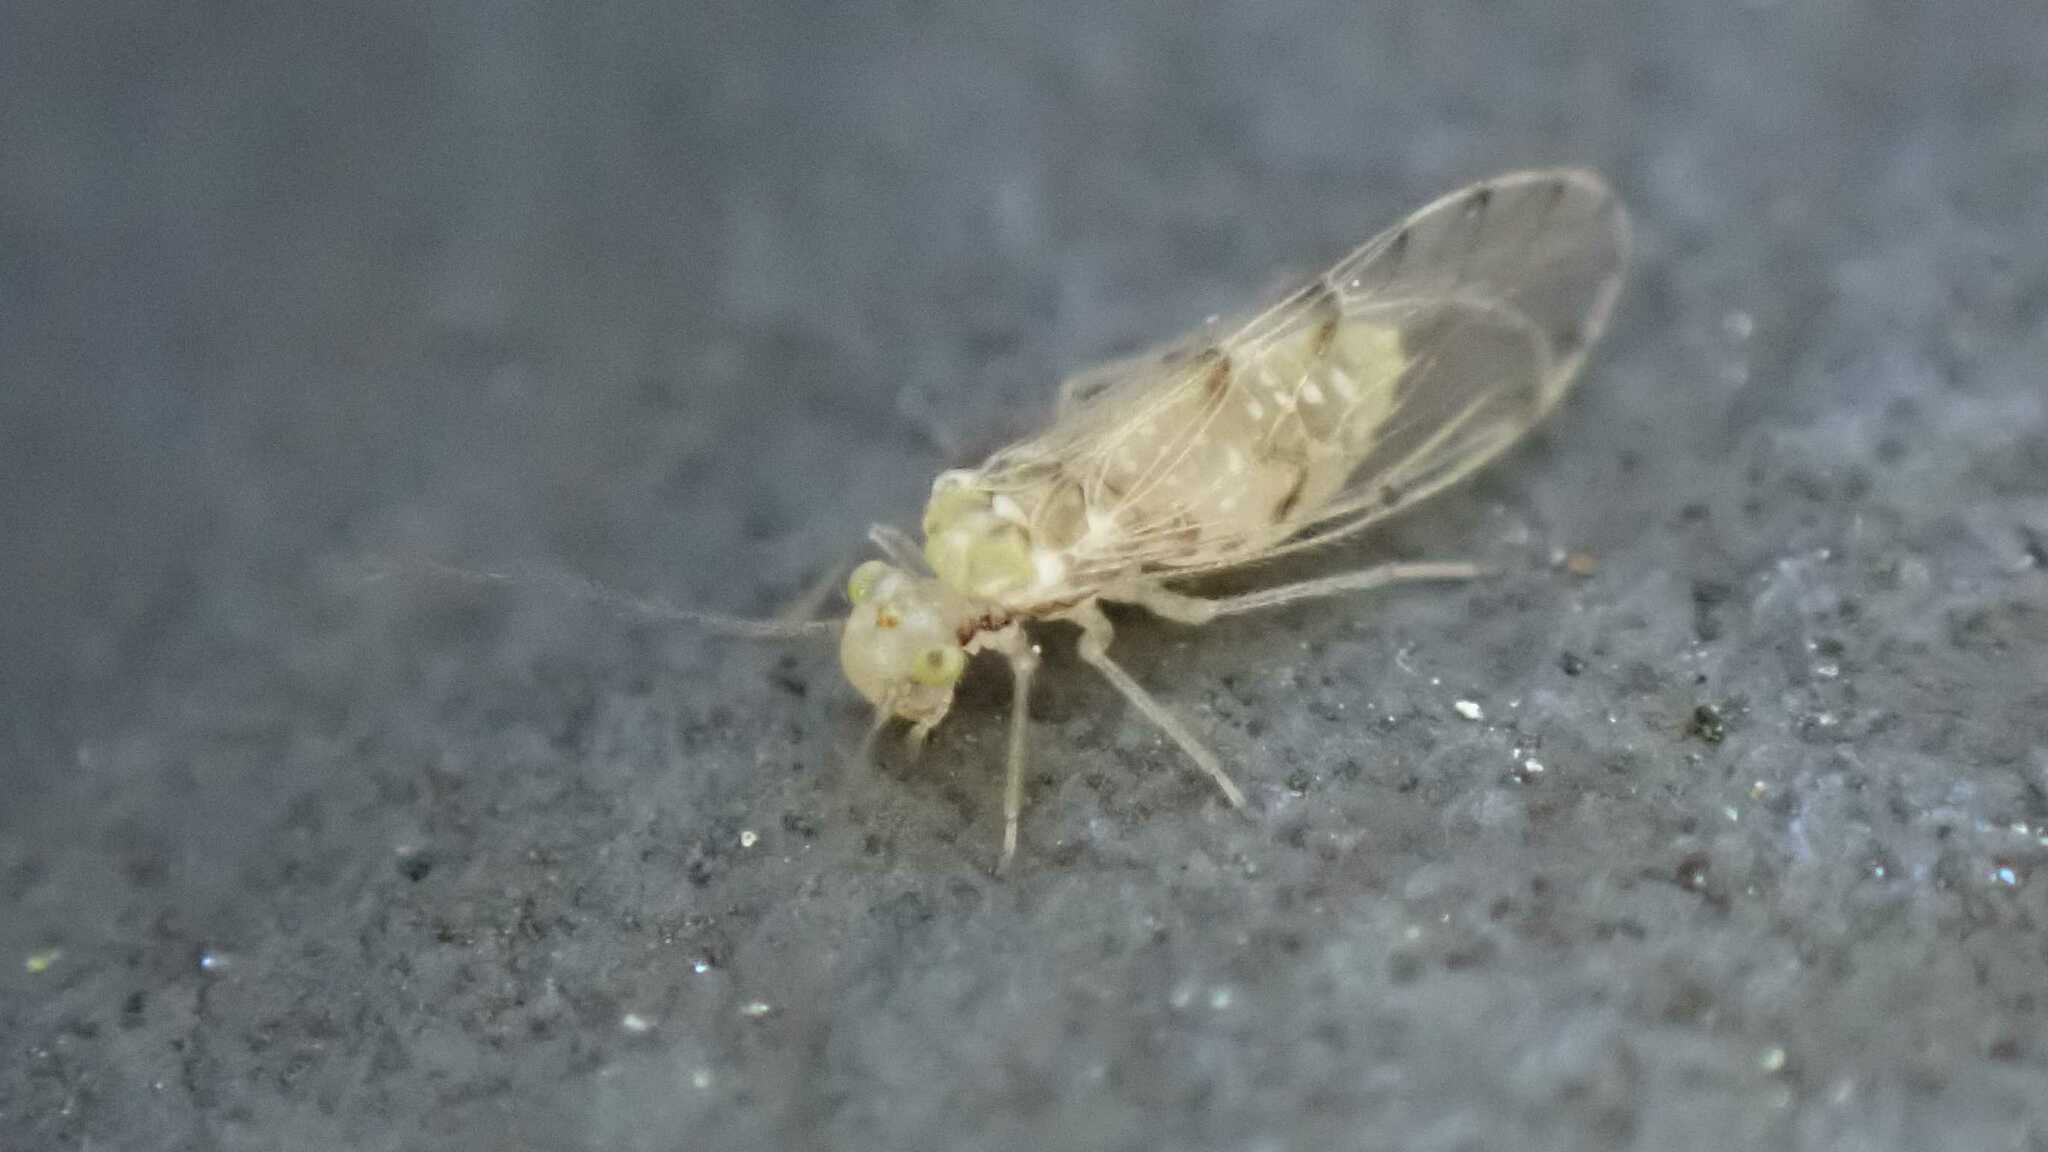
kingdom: Animalia
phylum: Arthropoda
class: Insecta
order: Psocodea
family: Trichopsocidae
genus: Trichopsocus
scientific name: Trichopsocus clarus
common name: Lash-faced psocid
